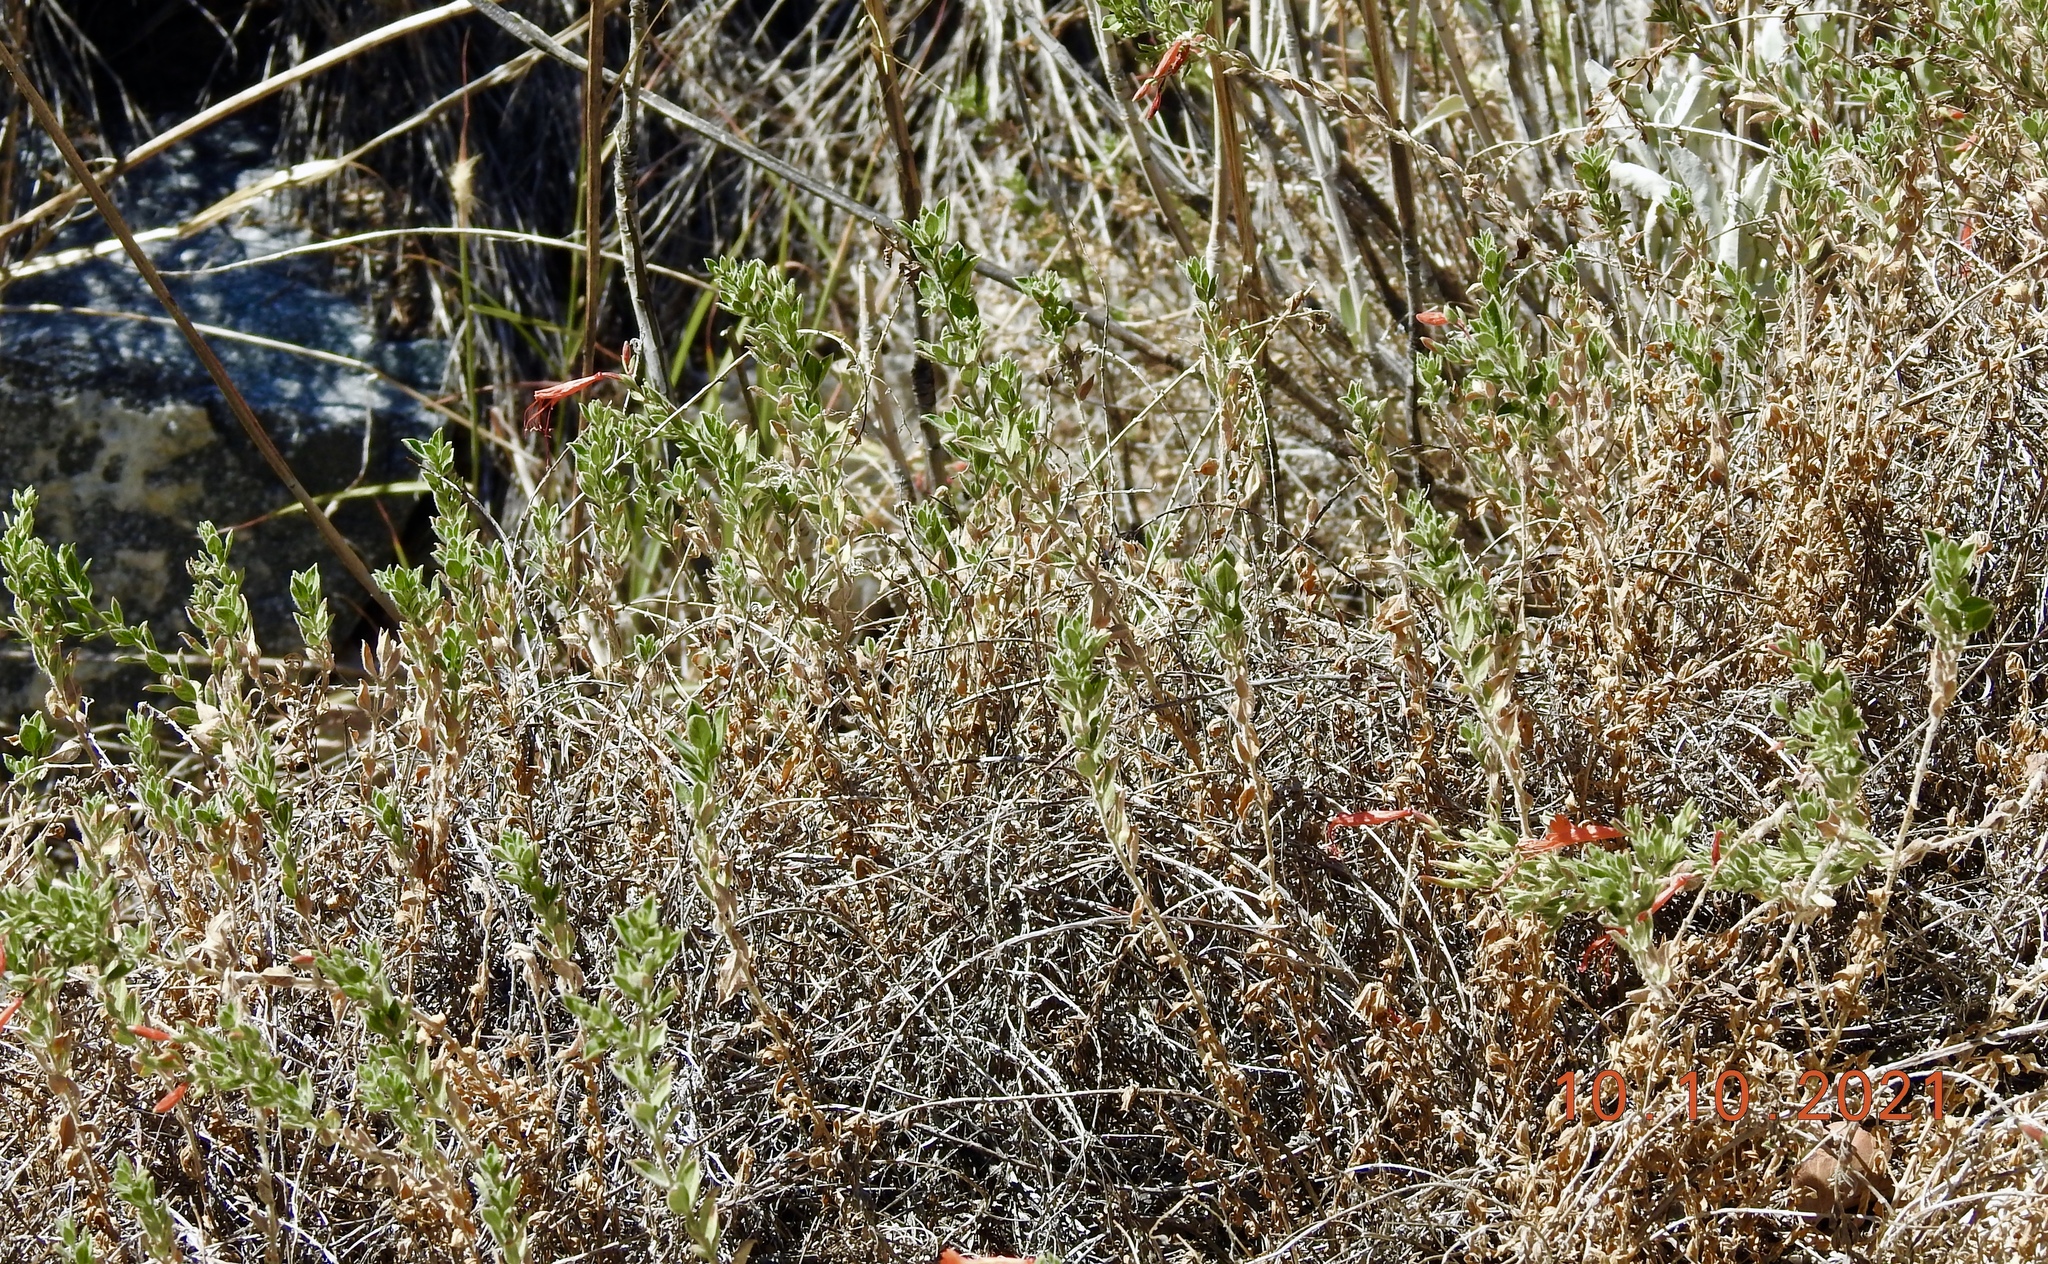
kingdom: Plantae
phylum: Tracheophyta
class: Magnoliopsida
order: Myrtales
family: Onagraceae
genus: Epilobium
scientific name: Epilobium canum
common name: California-fuchsia
